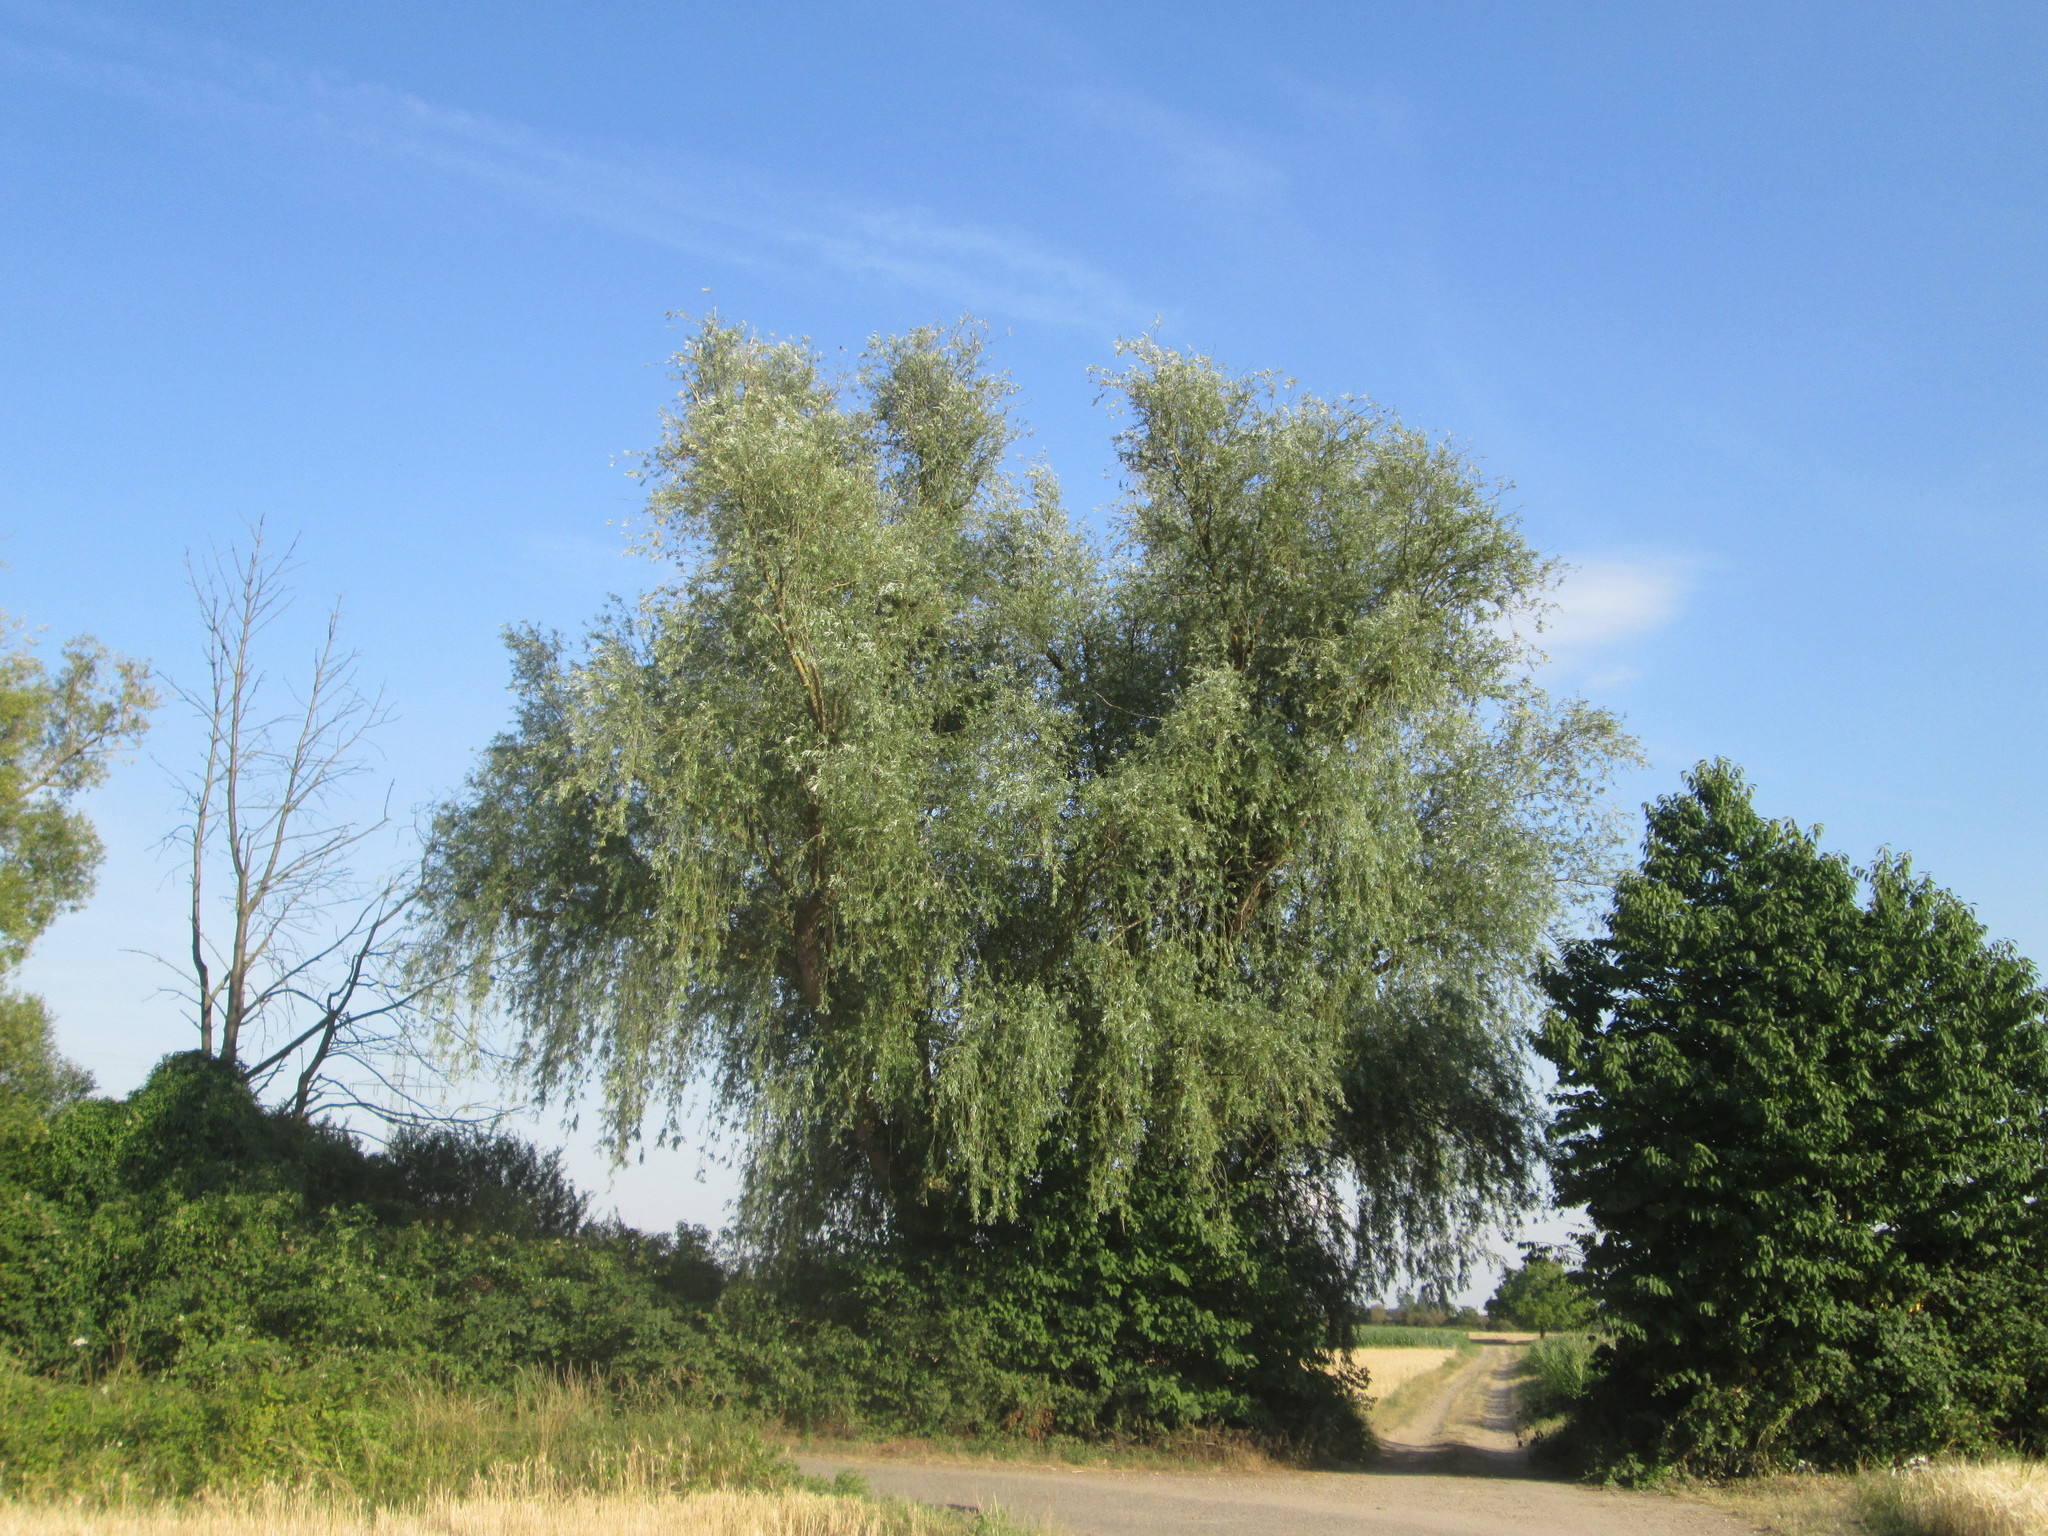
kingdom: Plantae
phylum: Tracheophyta
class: Magnoliopsida
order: Malpighiales
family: Salicaceae
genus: Salix
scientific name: Salix alba
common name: White willow
